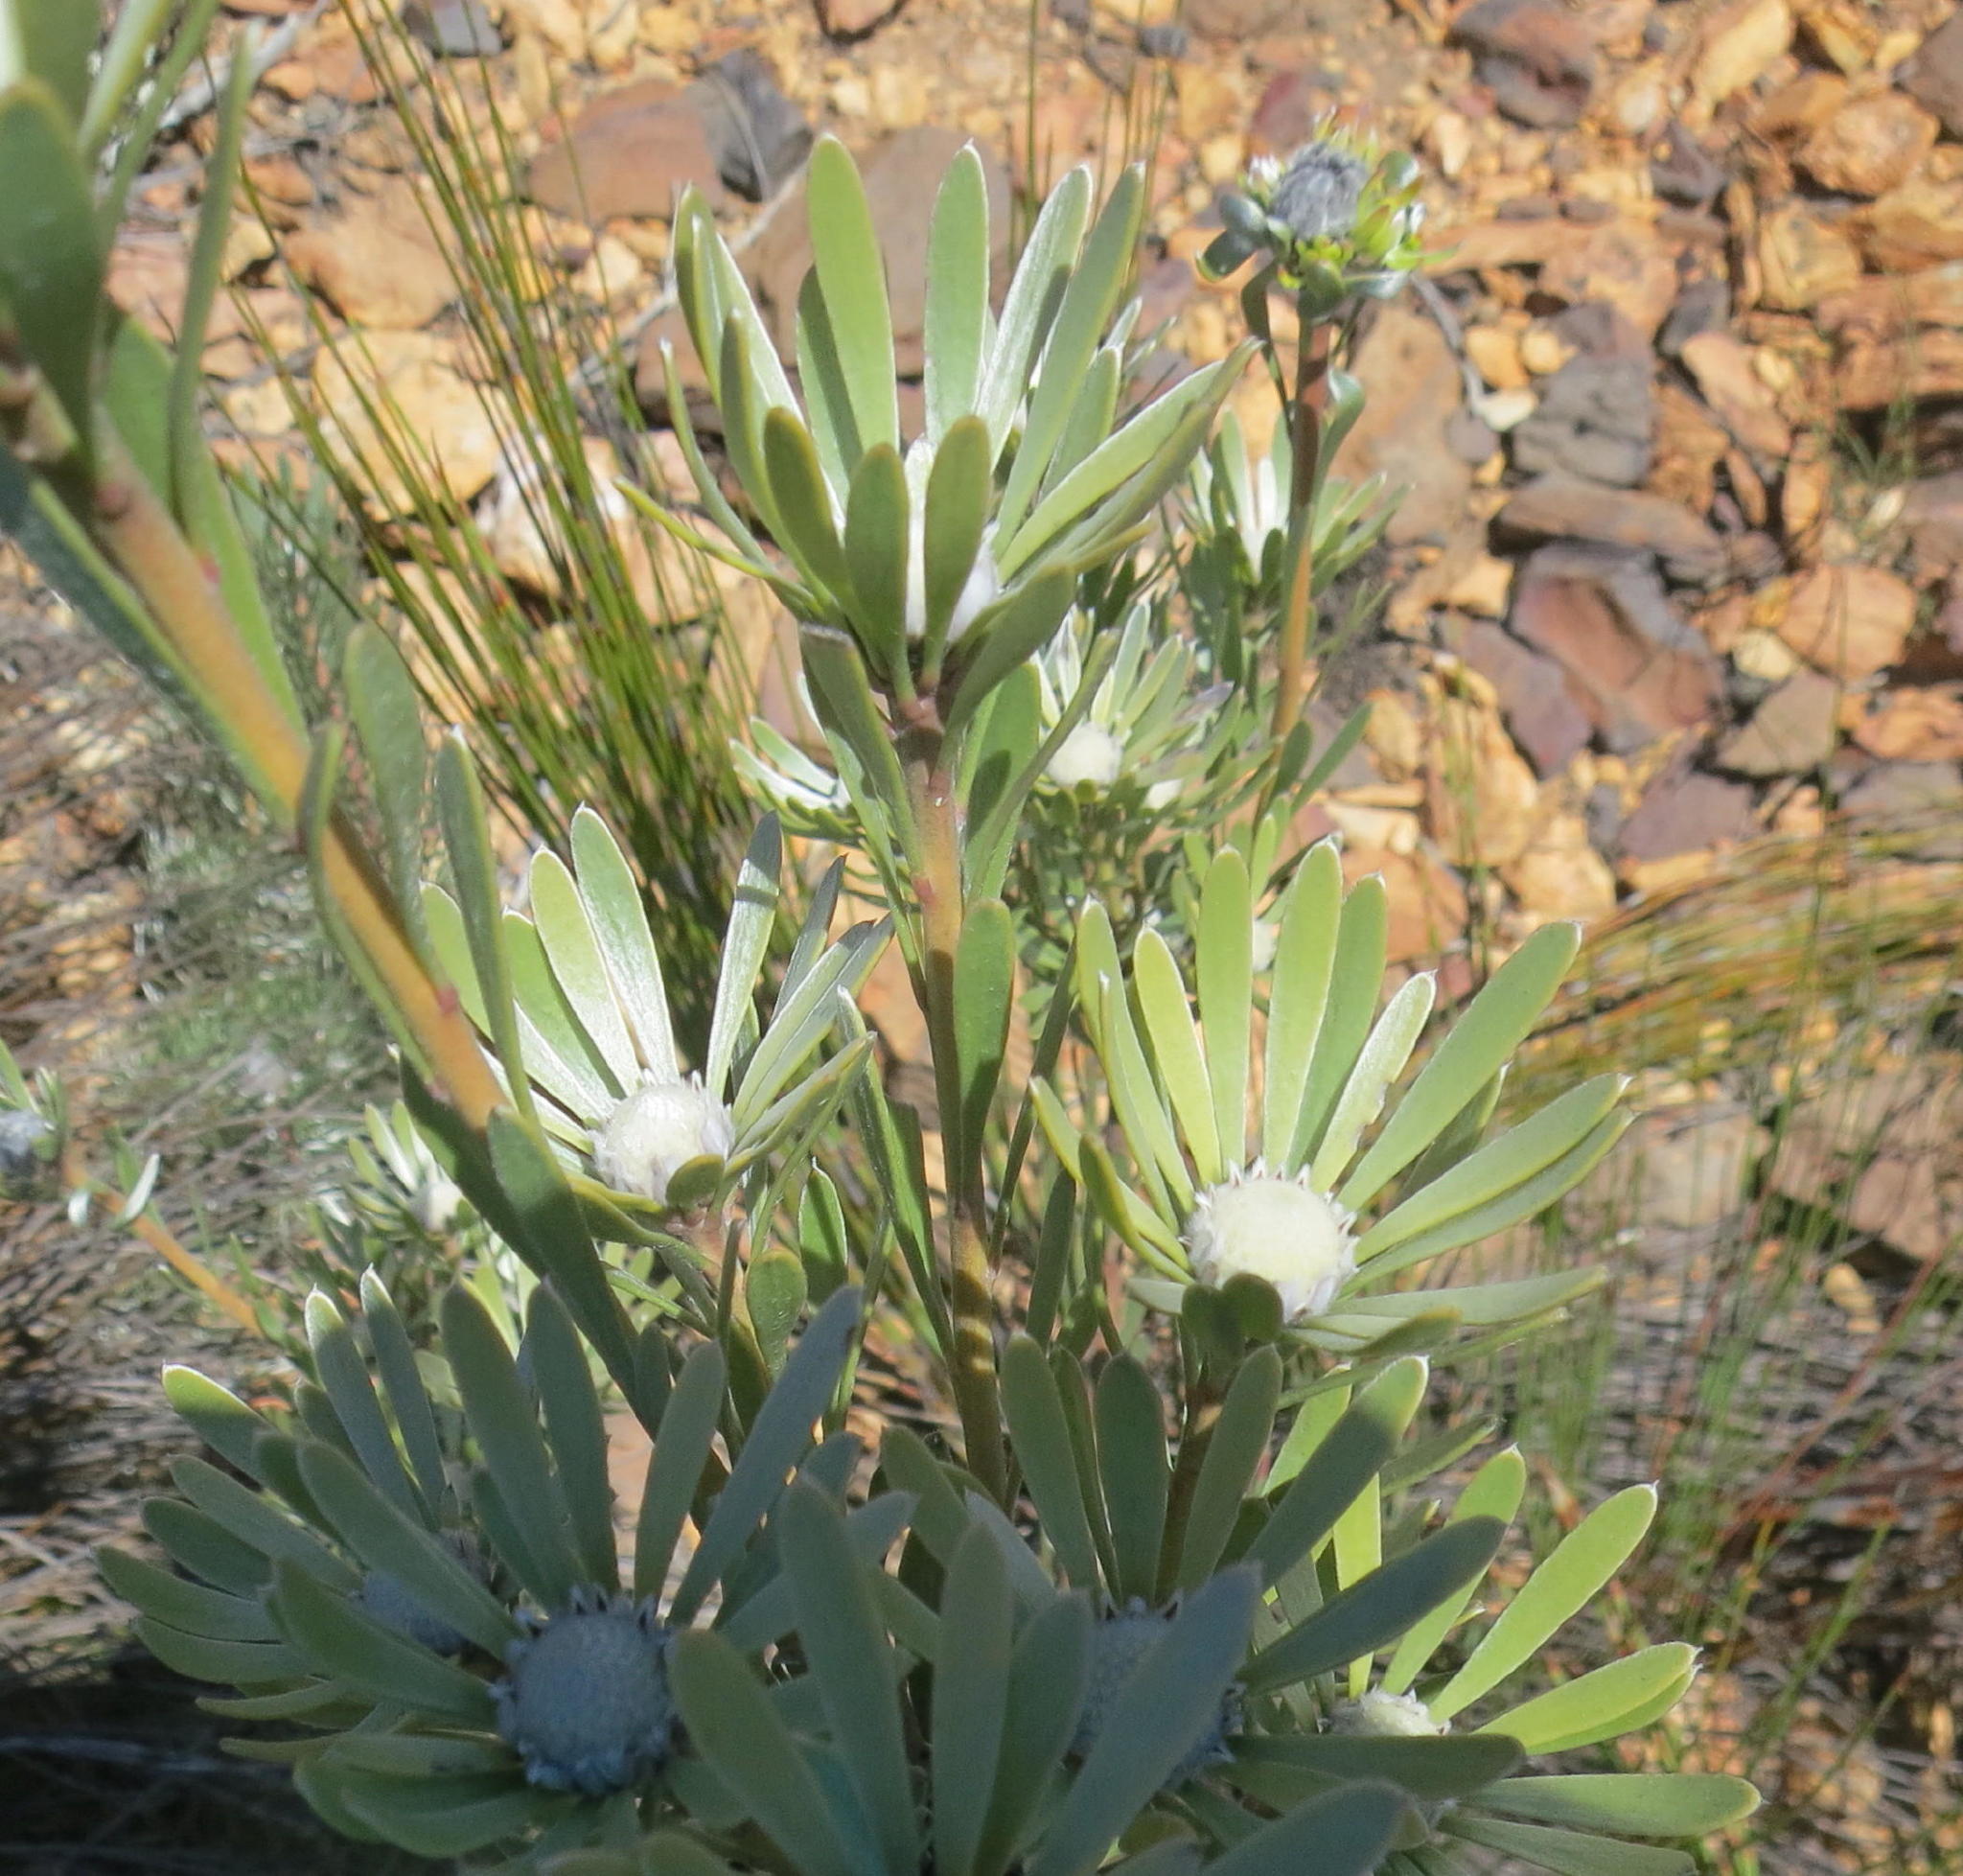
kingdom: Plantae
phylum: Tracheophyta
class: Magnoliopsida
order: Proteales
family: Proteaceae
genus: Leucadendron
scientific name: Leucadendron album
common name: Linear-leaf conebush
